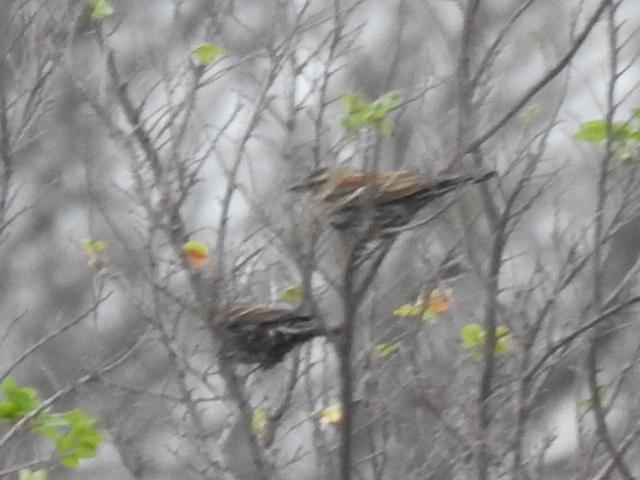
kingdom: Animalia
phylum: Chordata
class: Aves
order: Passeriformes
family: Icteridae
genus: Agelaius
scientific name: Agelaius phoeniceus
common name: Red-winged blackbird
